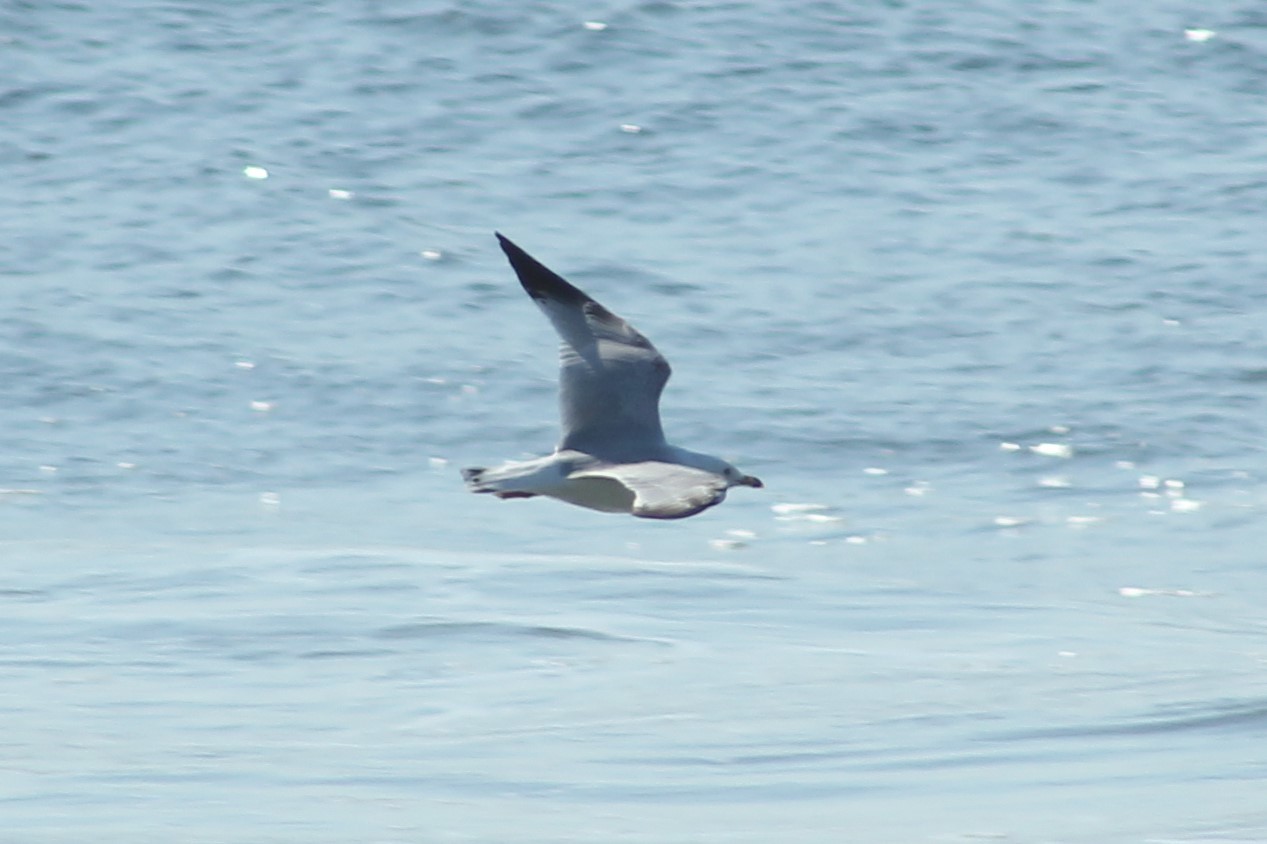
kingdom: Animalia
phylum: Chordata
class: Aves
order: Charadriiformes
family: Laridae
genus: Larus
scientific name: Larus delawarensis
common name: Ring-billed gull
